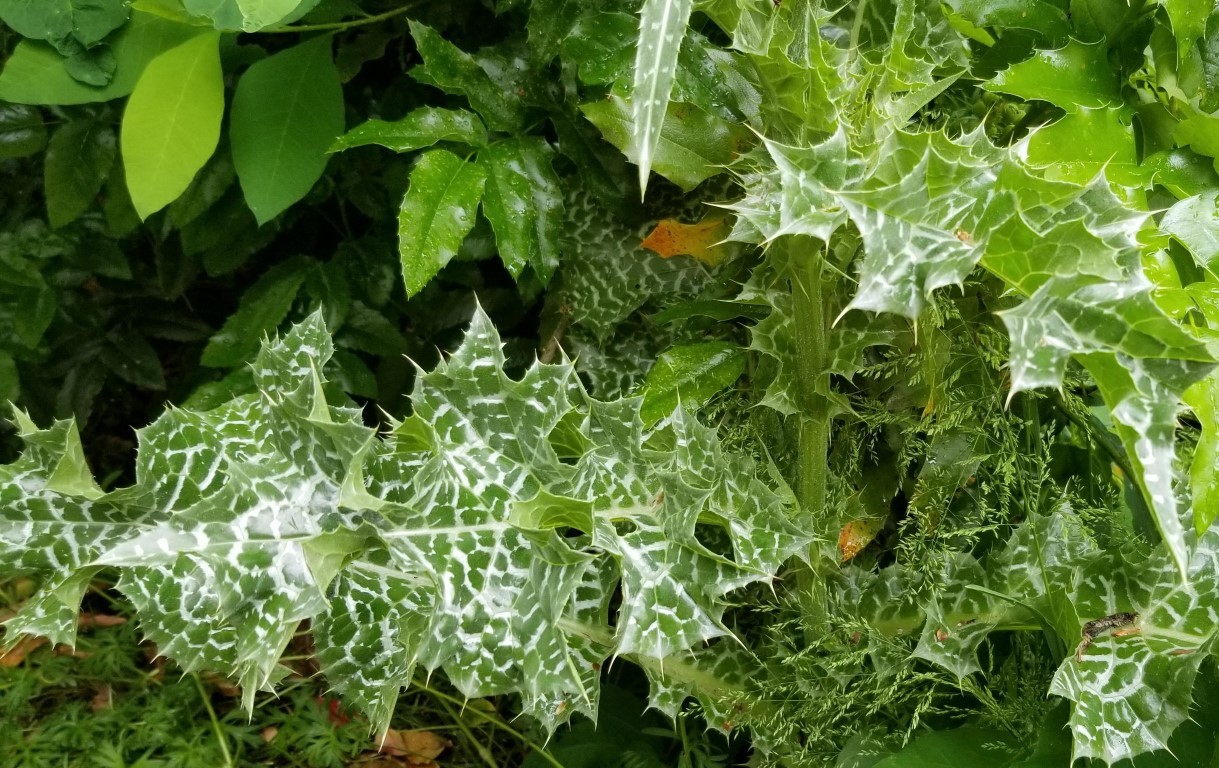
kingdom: Plantae
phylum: Tracheophyta
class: Magnoliopsida
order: Asterales
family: Asteraceae
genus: Silybum
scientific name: Silybum marianum
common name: Milk thistle
